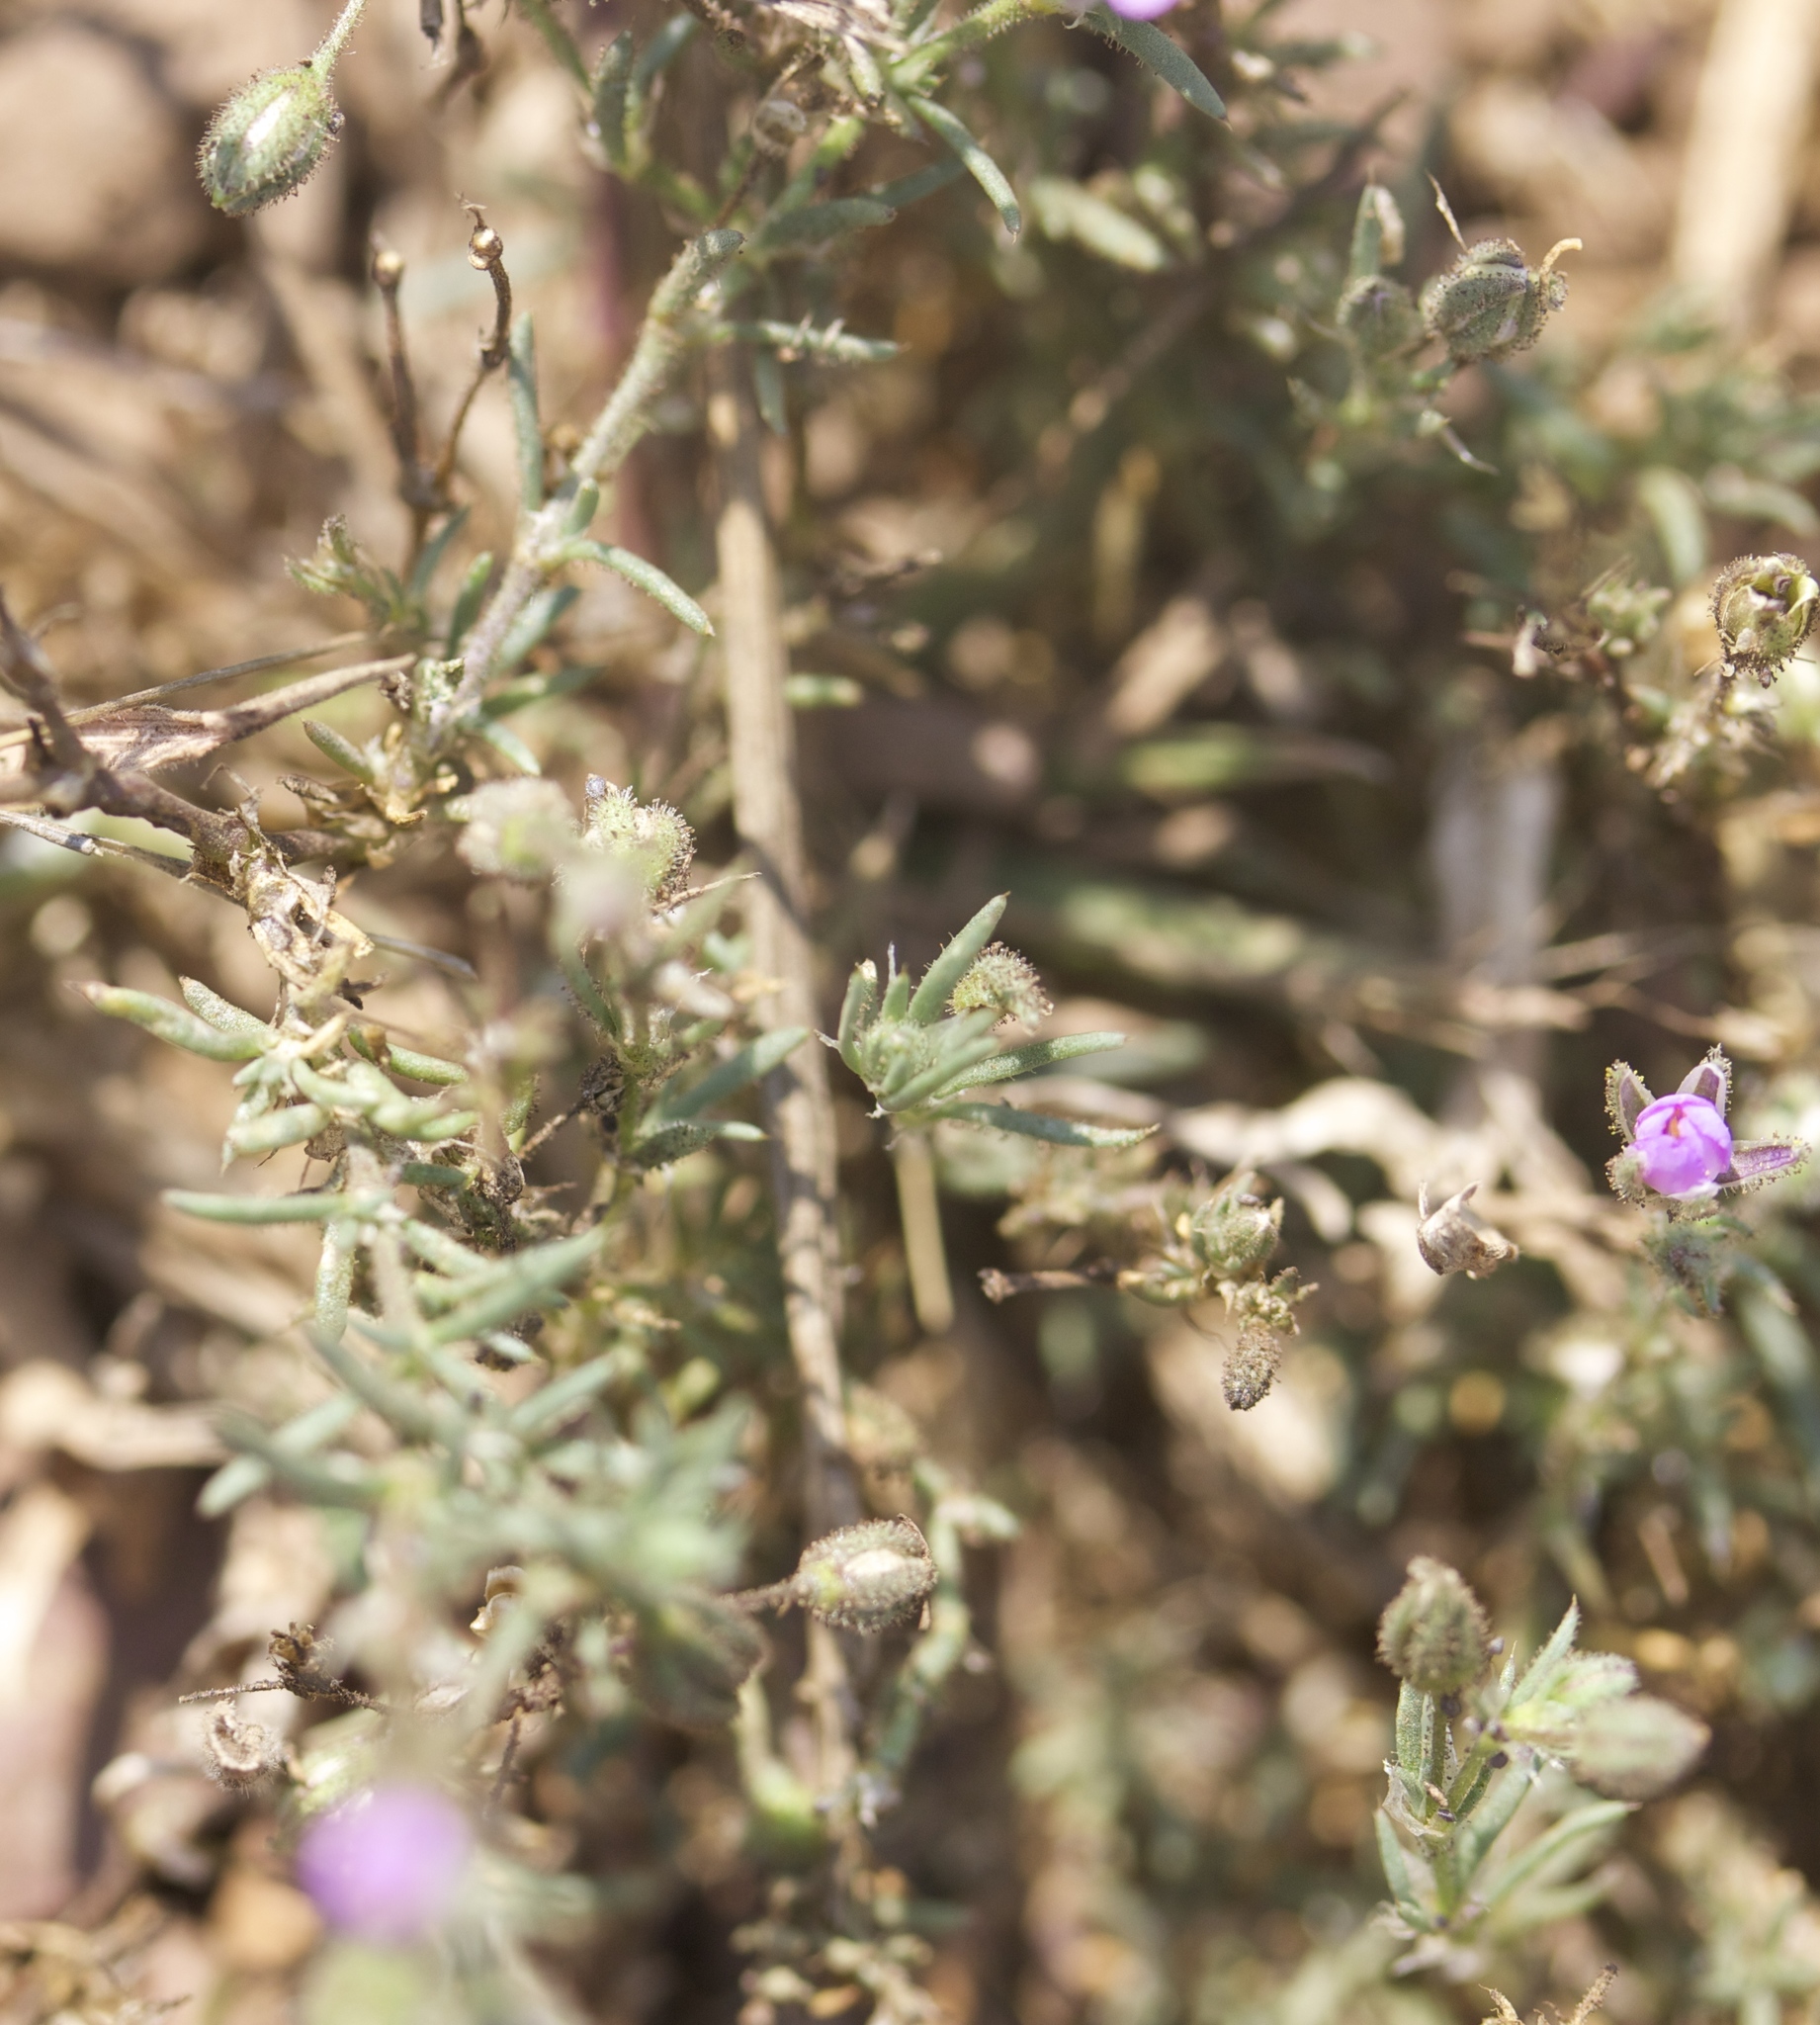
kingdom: Plantae
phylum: Tracheophyta
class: Magnoliopsida
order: Caryophyllales
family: Caryophyllaceae
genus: Spergularia
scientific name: Spergularia macrotheca
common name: Beach sand-spurrey
